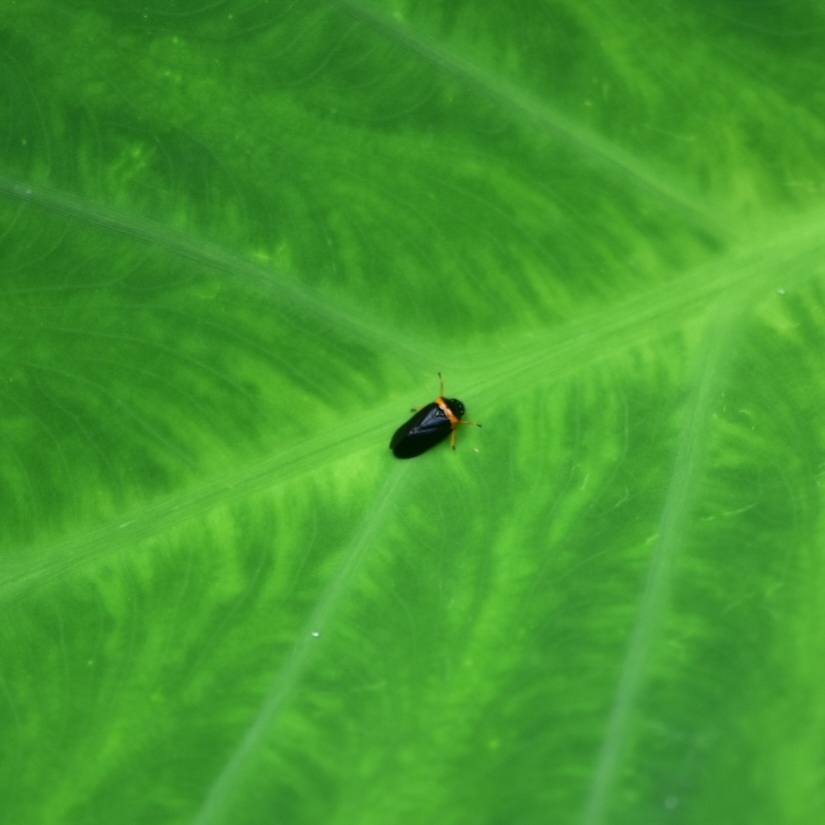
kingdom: Animalia
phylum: Arthropoda
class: Insecta
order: Hemiptera
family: Cercopidae
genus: Phymatostetha
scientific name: Phymatostetha deschampsi
